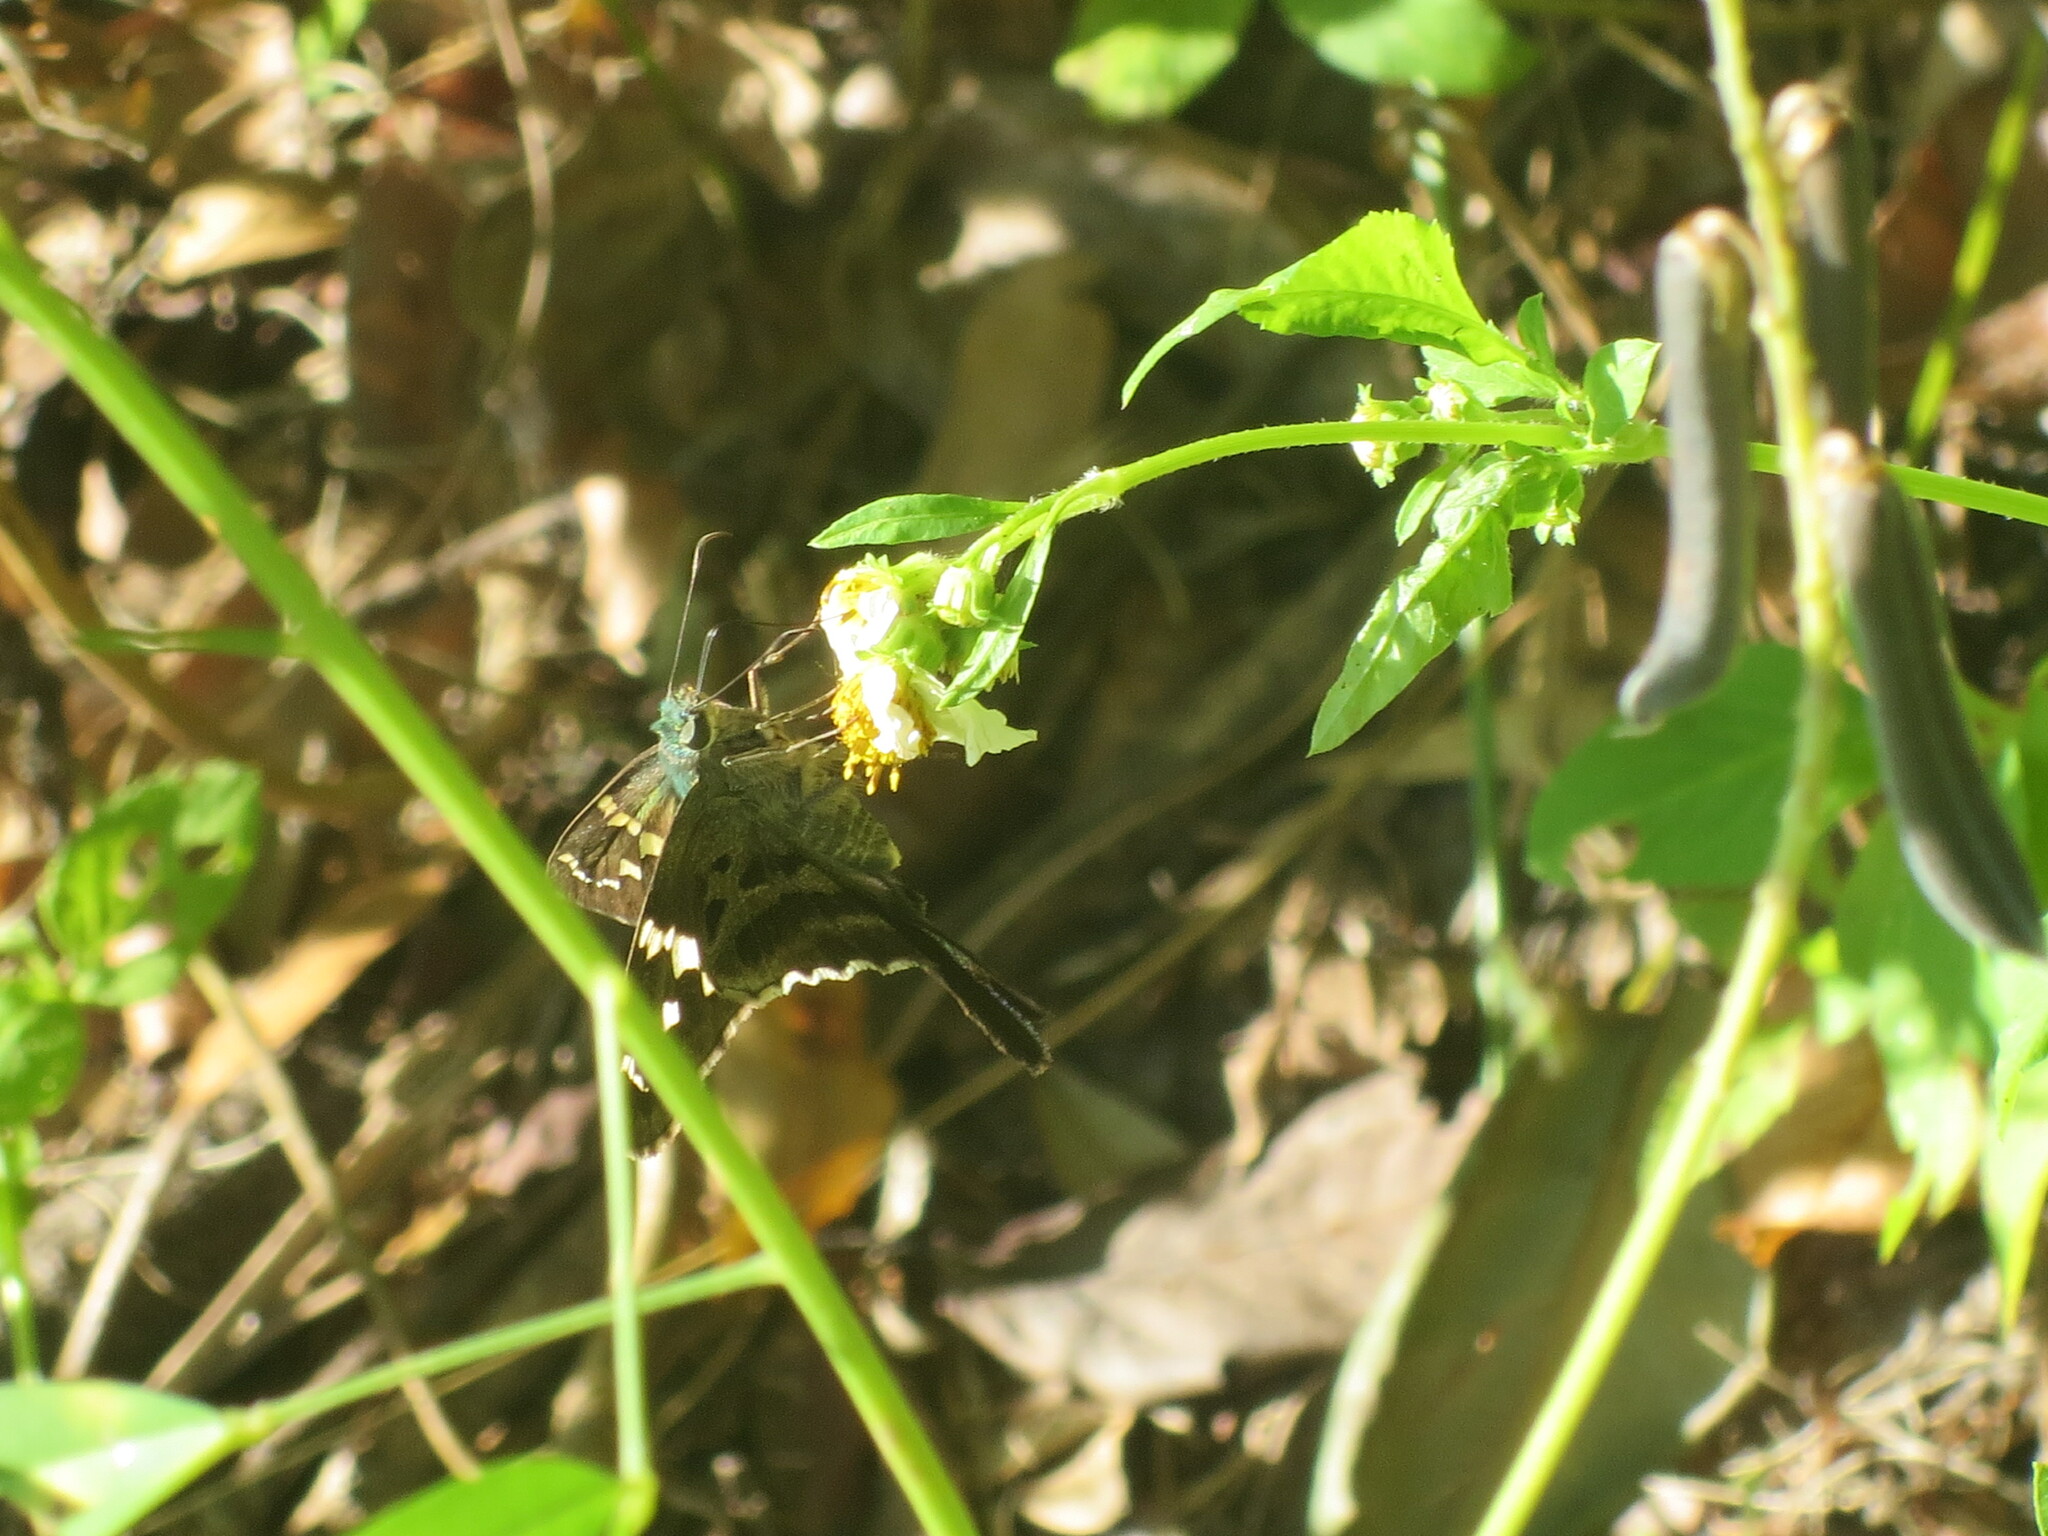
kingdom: Plantae
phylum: Tracheophyta
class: Magnoliopsida
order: Asterales
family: Asteraceae
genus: Bidens
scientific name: Bidens alba
